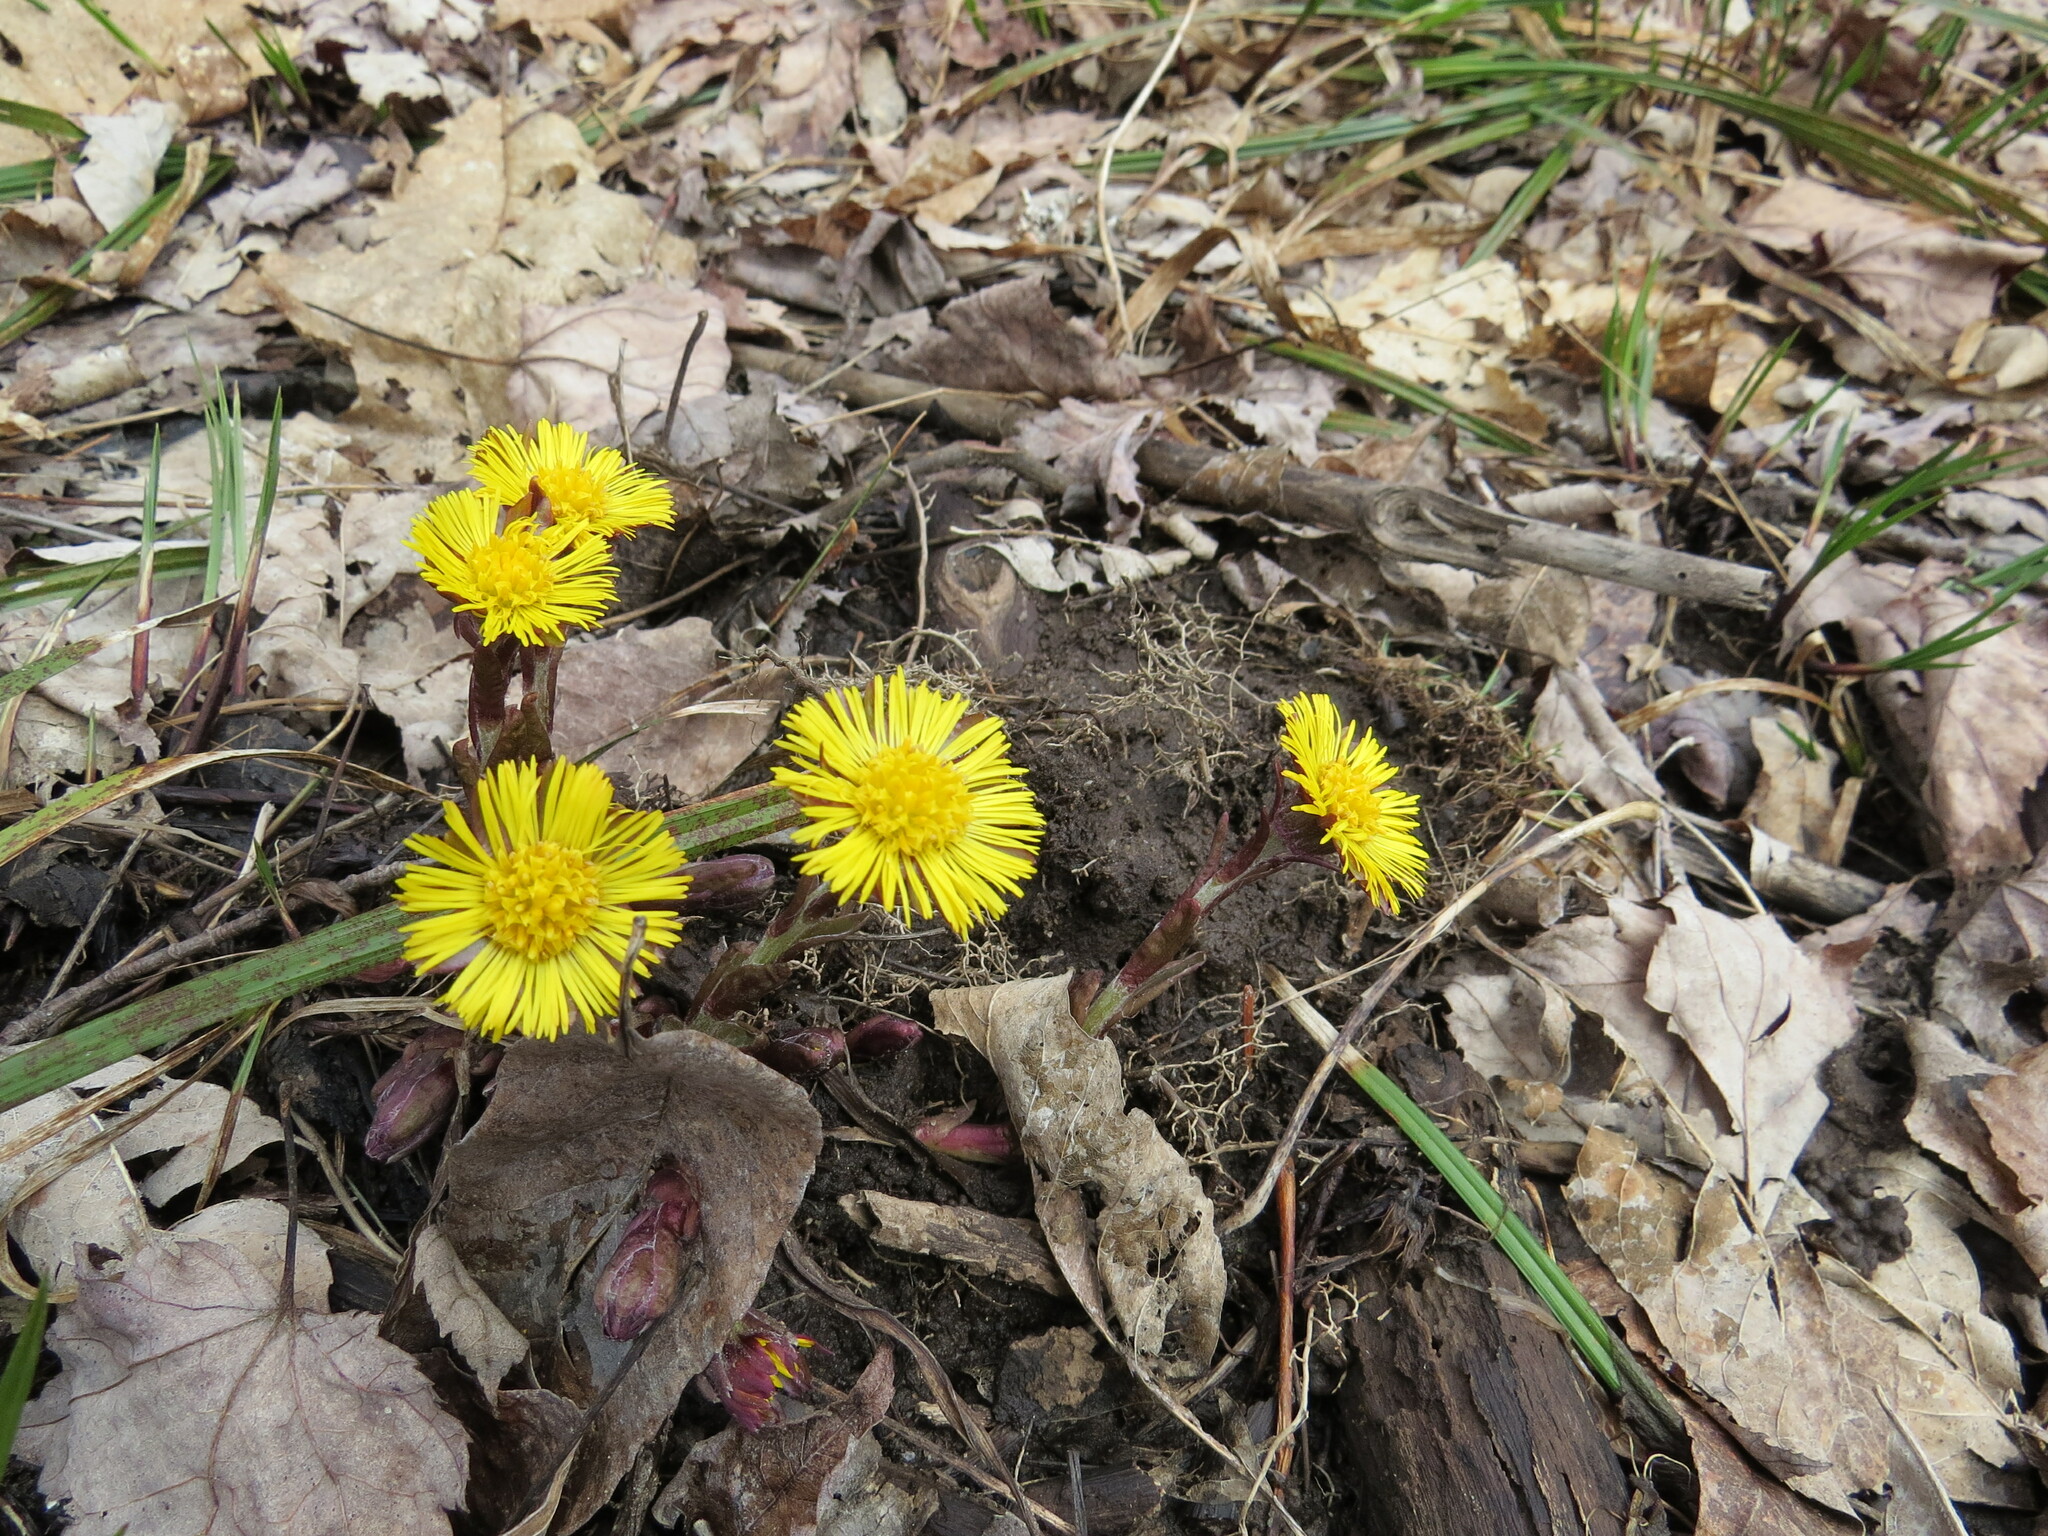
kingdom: Plantae
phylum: Tracheophyta
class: Magnoliopsida
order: Asterales
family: Asteraceae
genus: Tussilago
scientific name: Tussilago farfara
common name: Coltsfoot
